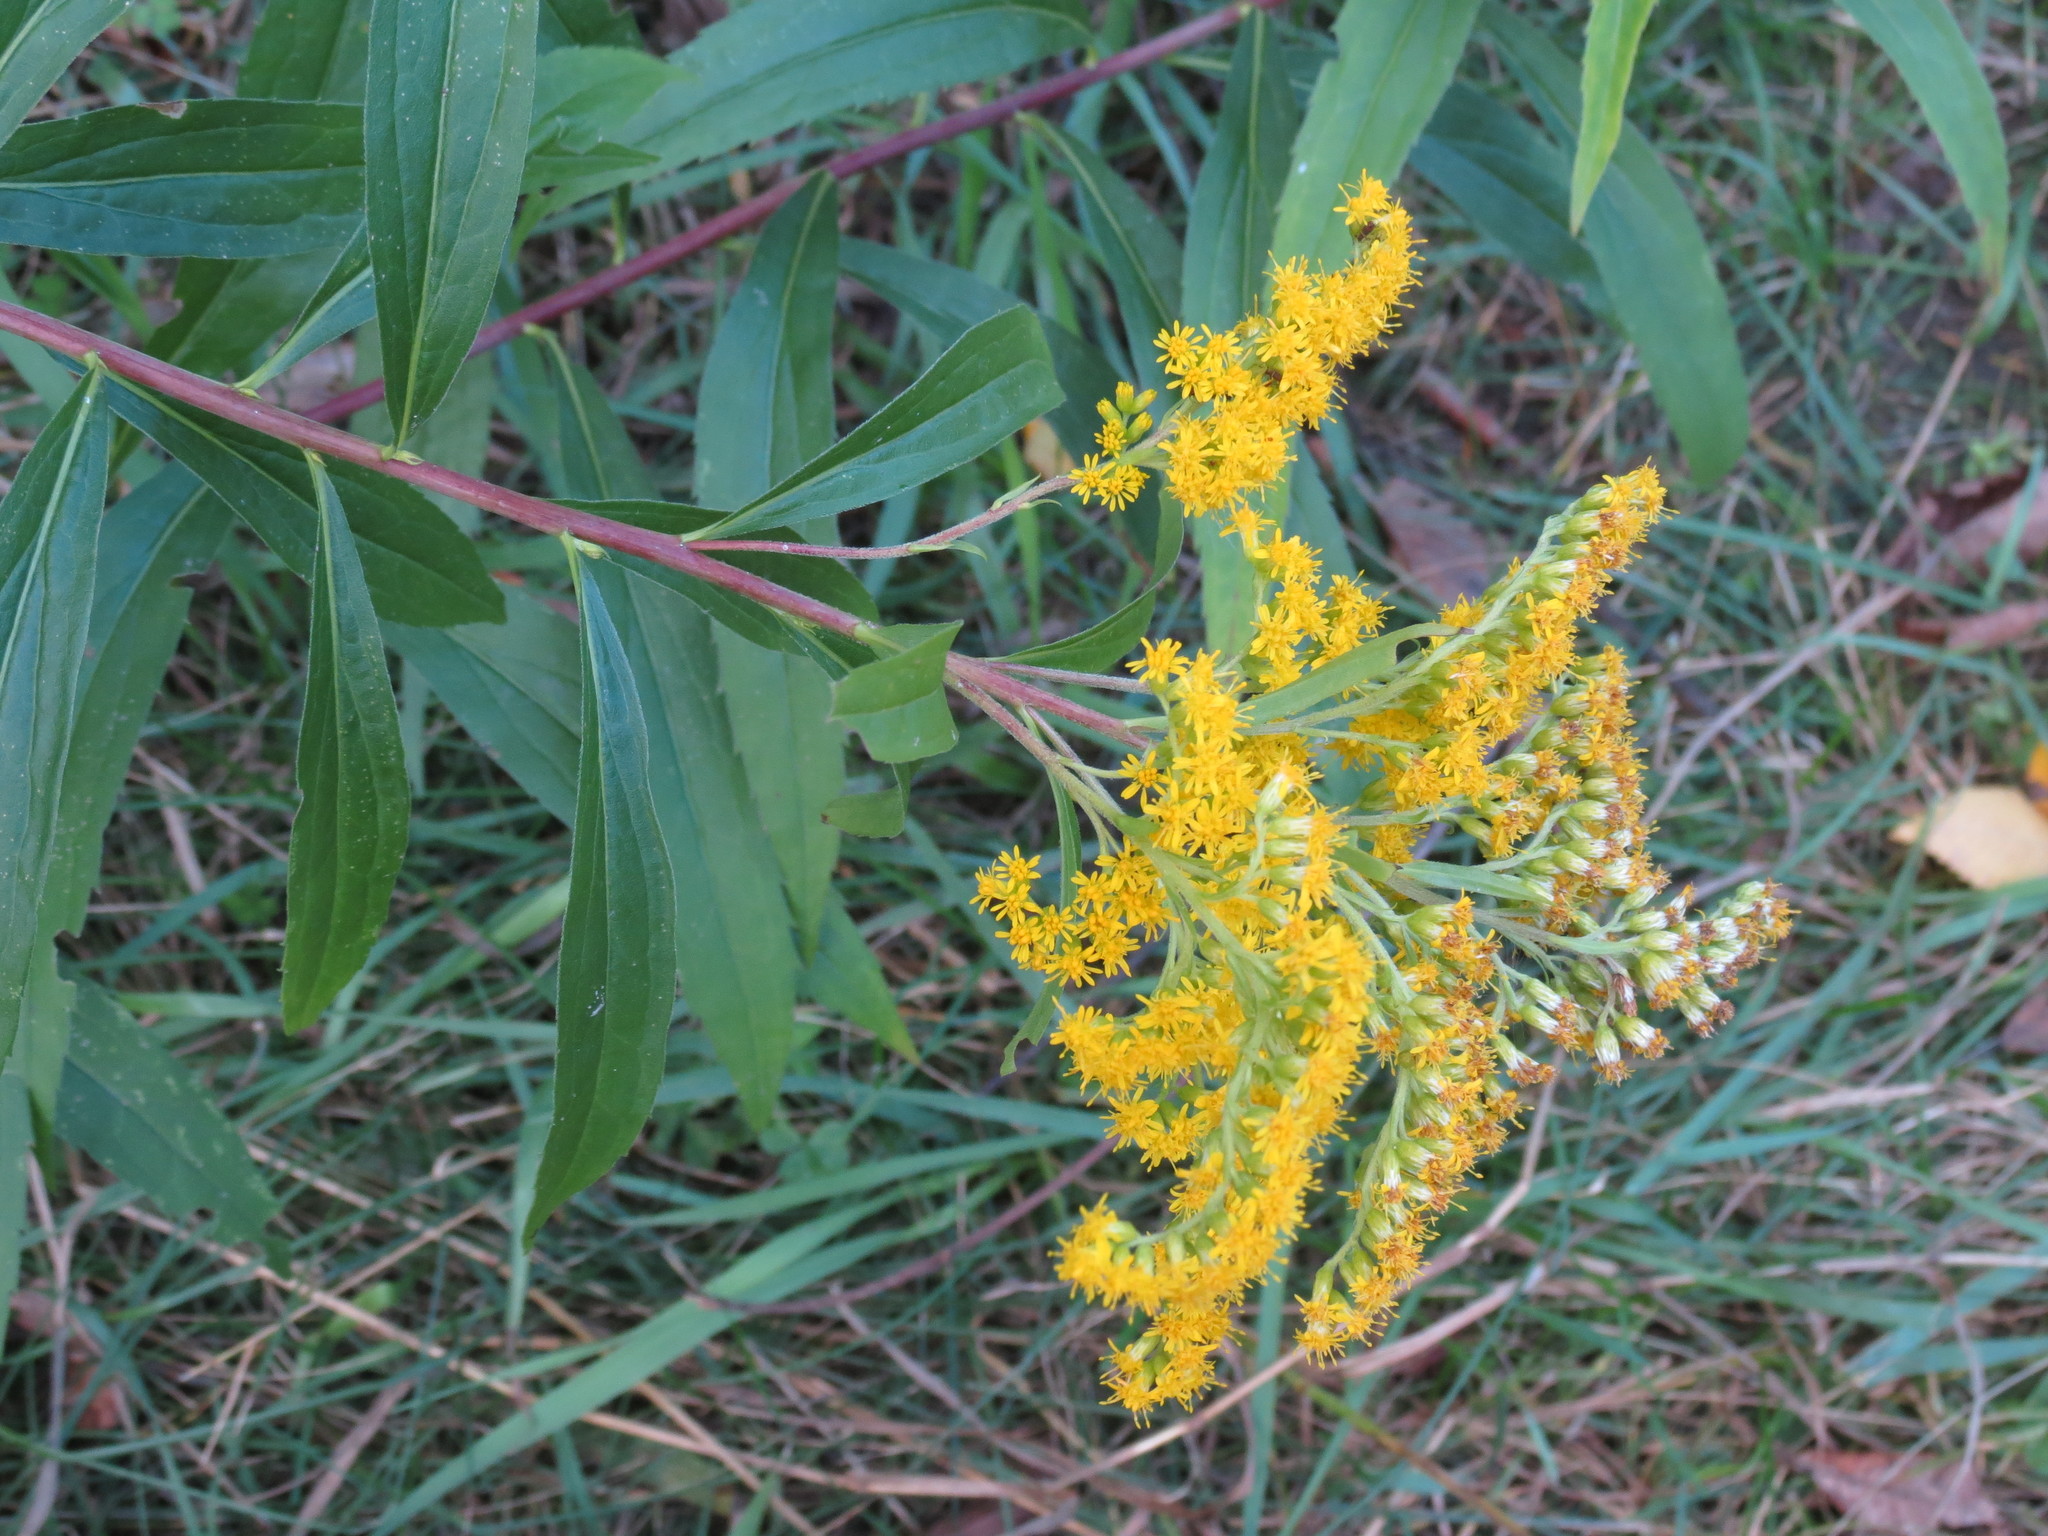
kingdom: Plantae
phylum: Tracheophyta
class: Magnoliopsida
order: Asterales
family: Asteraceae
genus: Solidago
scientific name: Solidago gigantea
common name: Giant goldenrod
